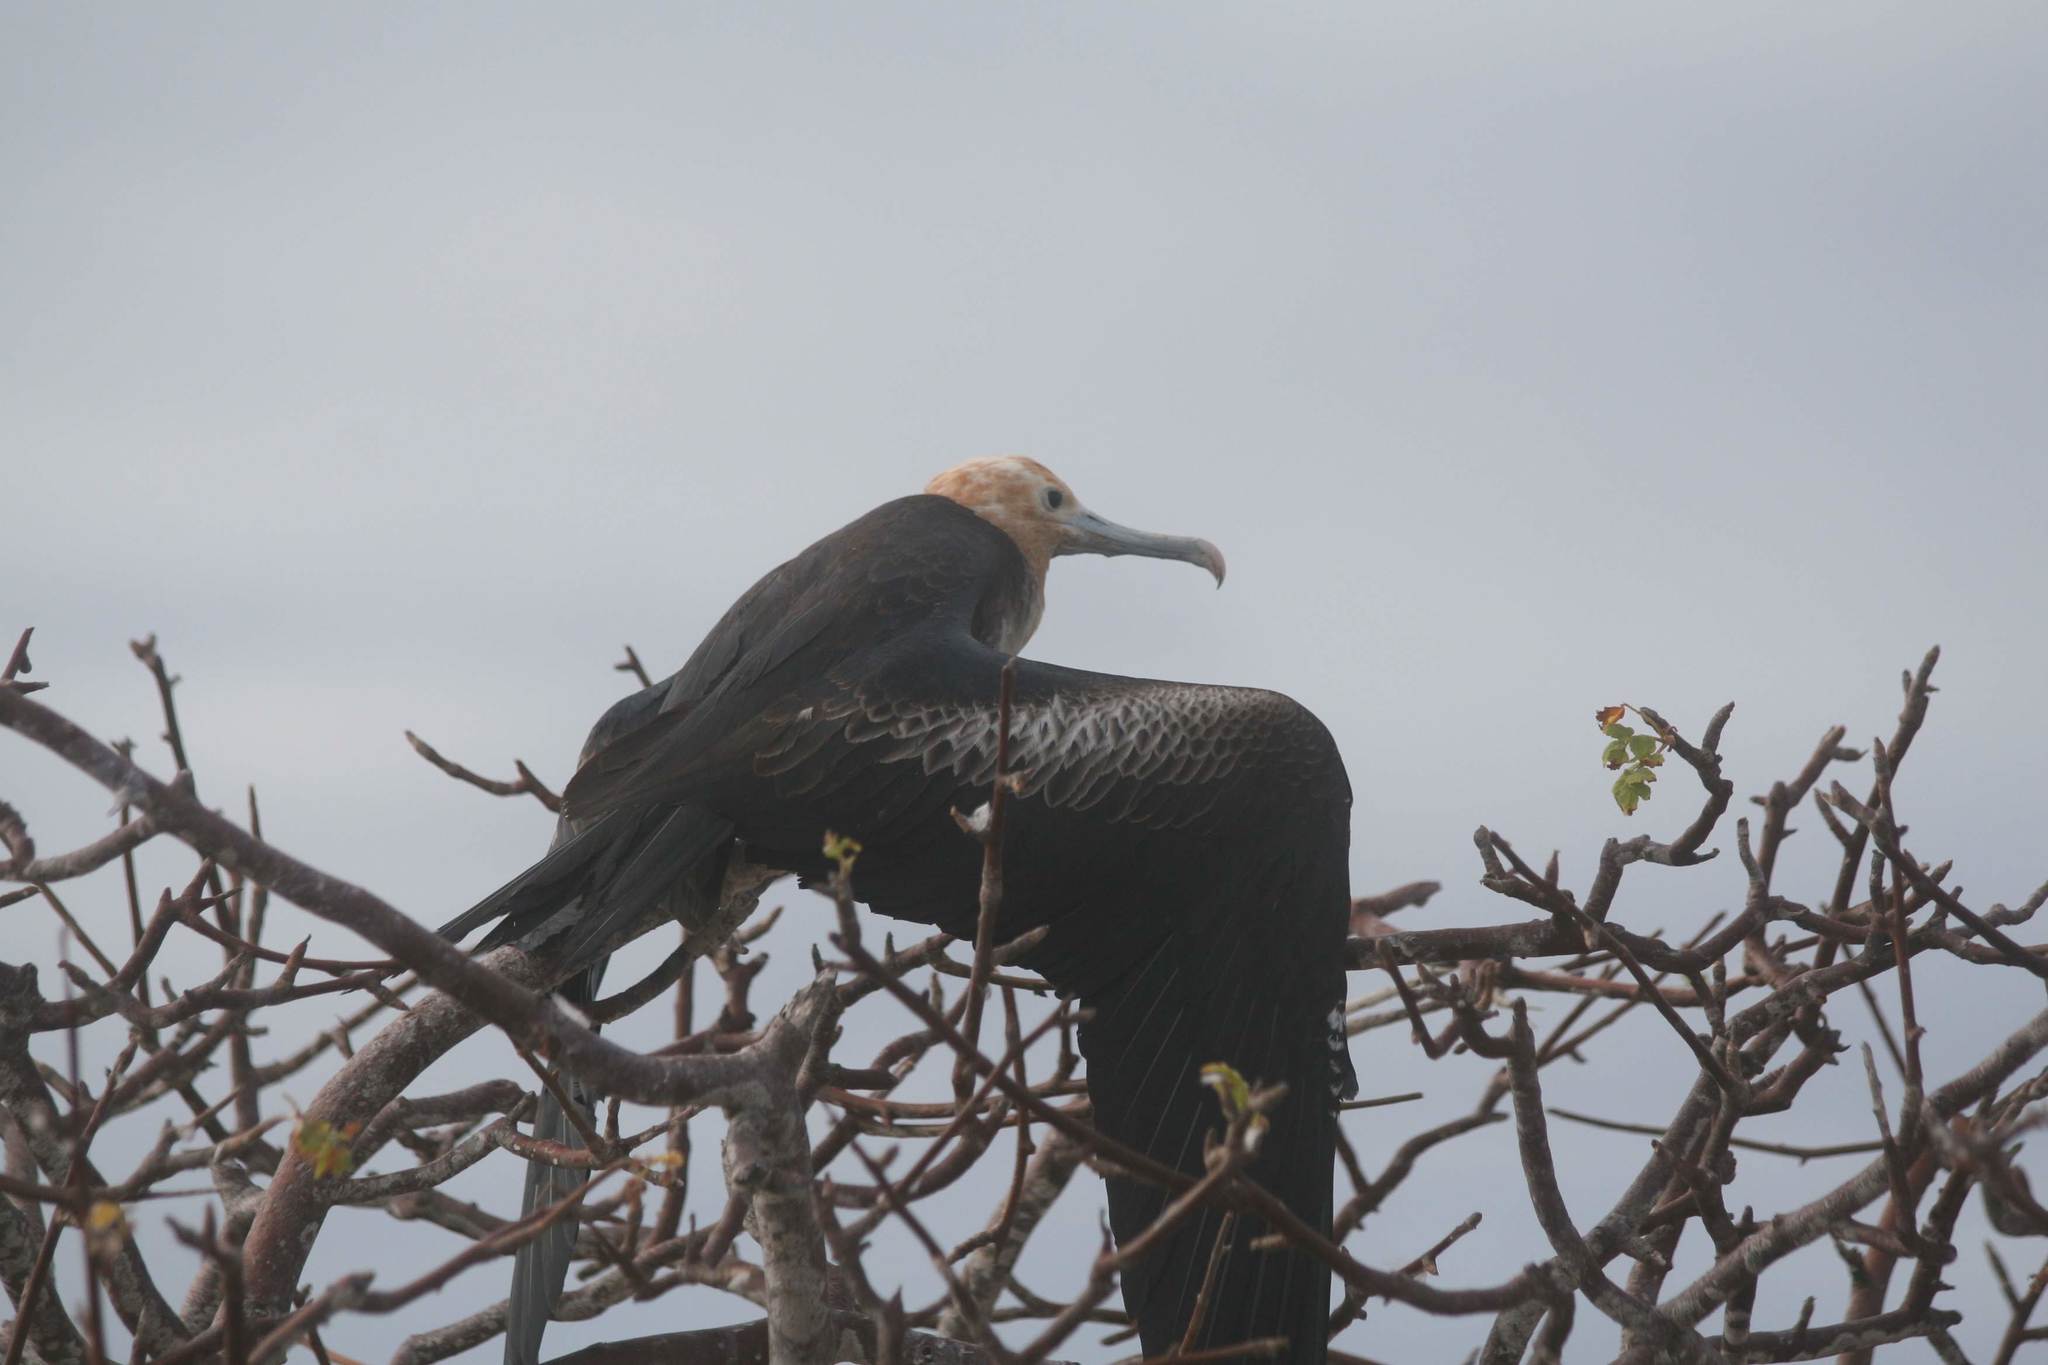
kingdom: Animalia
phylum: Chordata
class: Aves
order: Suliformes
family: Fregatidae
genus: Fregata
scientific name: Fregata minor
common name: Great frigatebird
